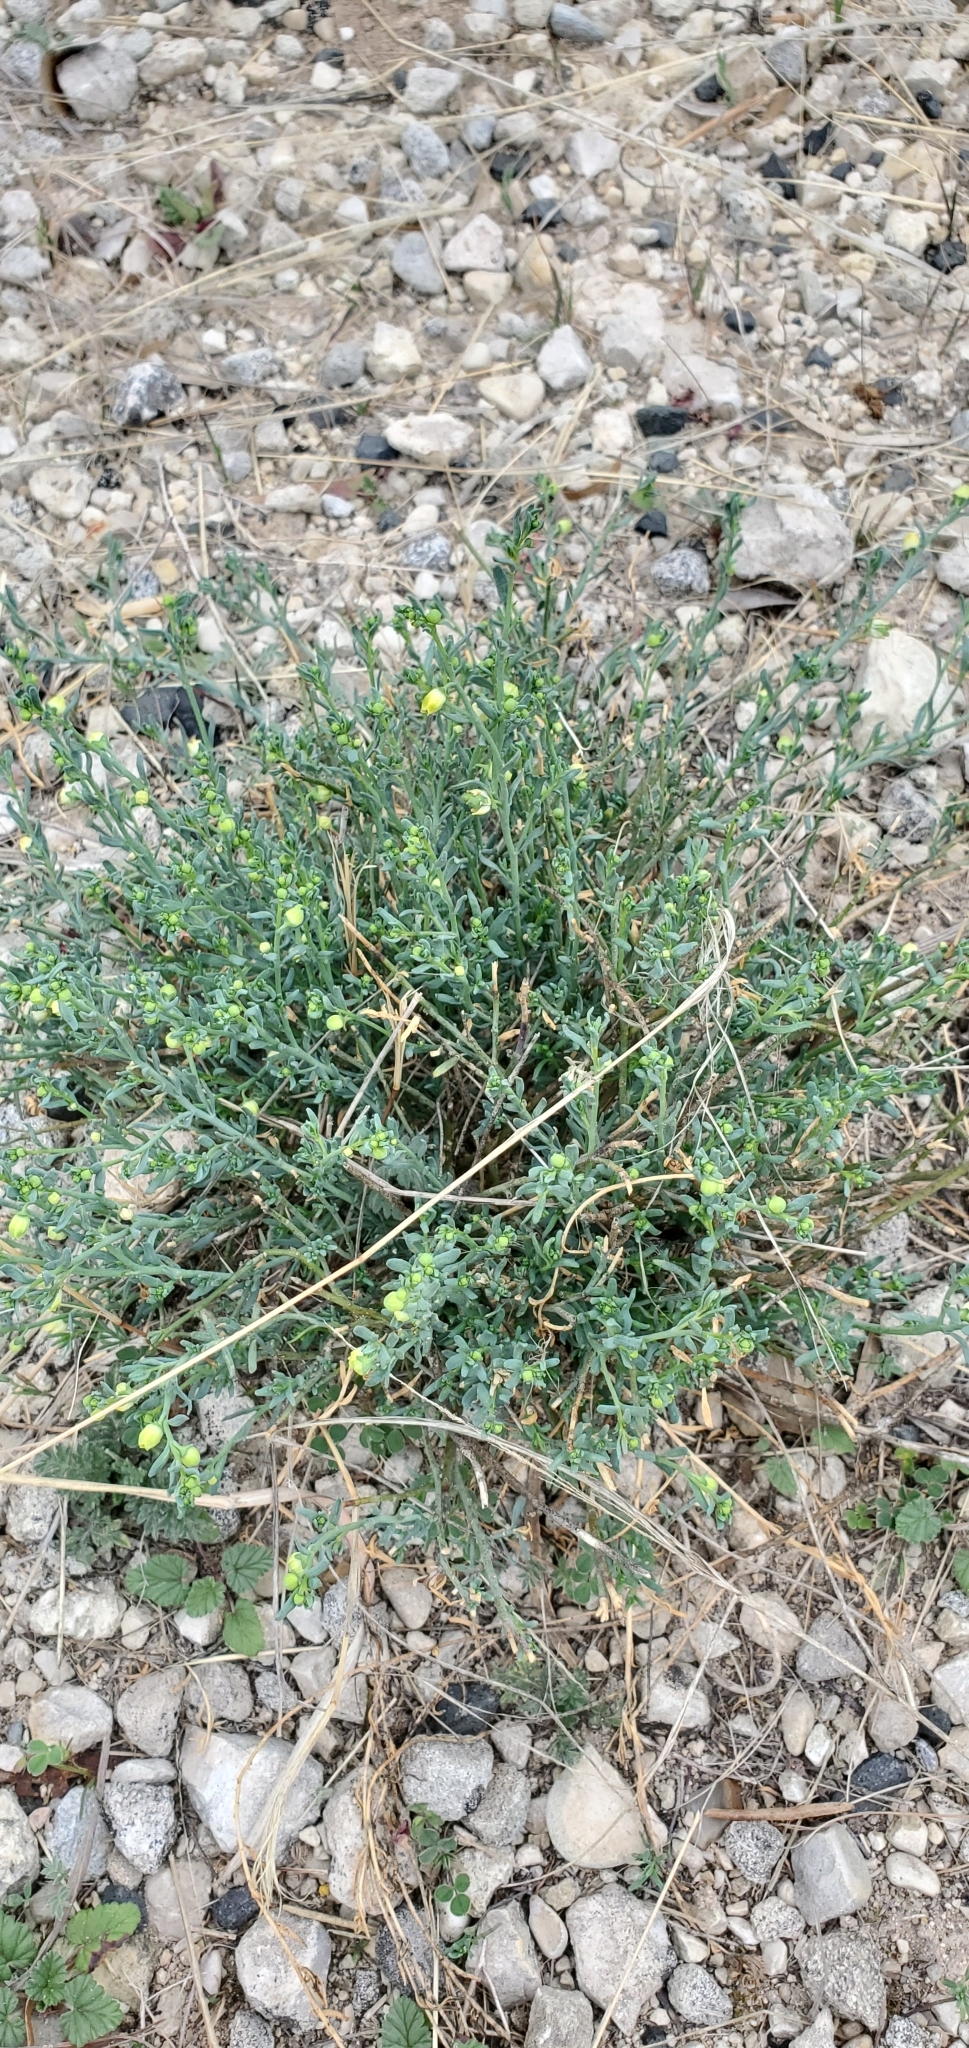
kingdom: Plantae
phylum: Tracheophyta
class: Magnoliopsida
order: Sapindales
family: Rutaceae
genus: Thamnosma
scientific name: Thamnosma texana
